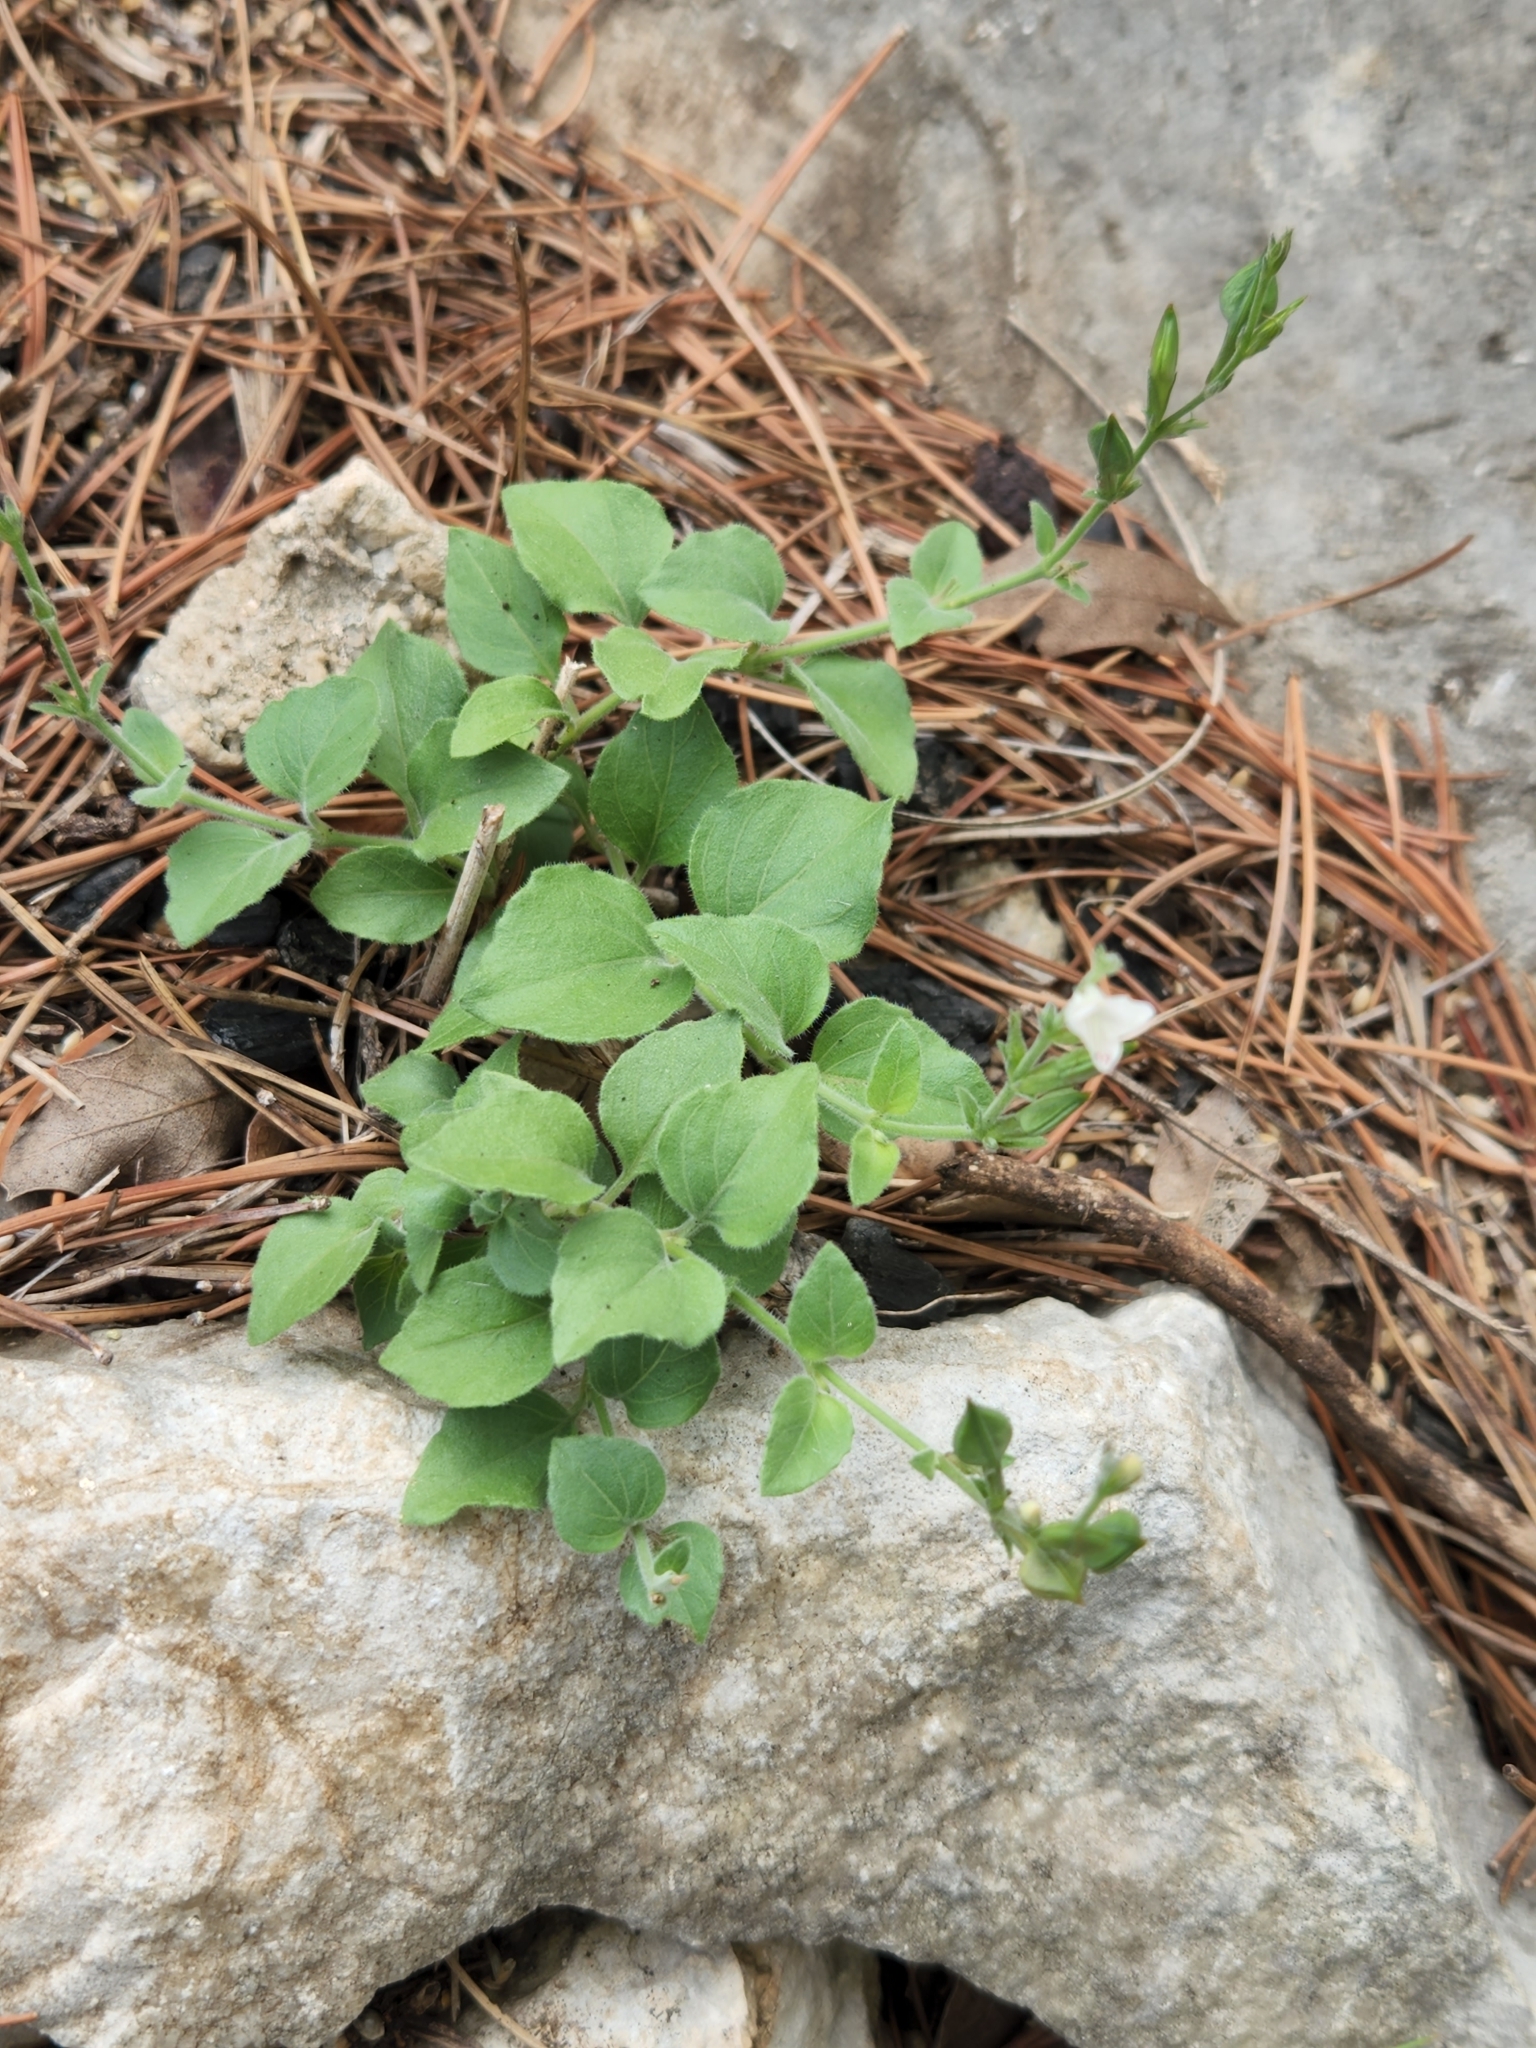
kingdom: Plantae
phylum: Tracheophyta
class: Magnoliopsida
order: Lamiales
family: Acanthaceae
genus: Carlowrightia
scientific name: Carlowrightia torreyana
